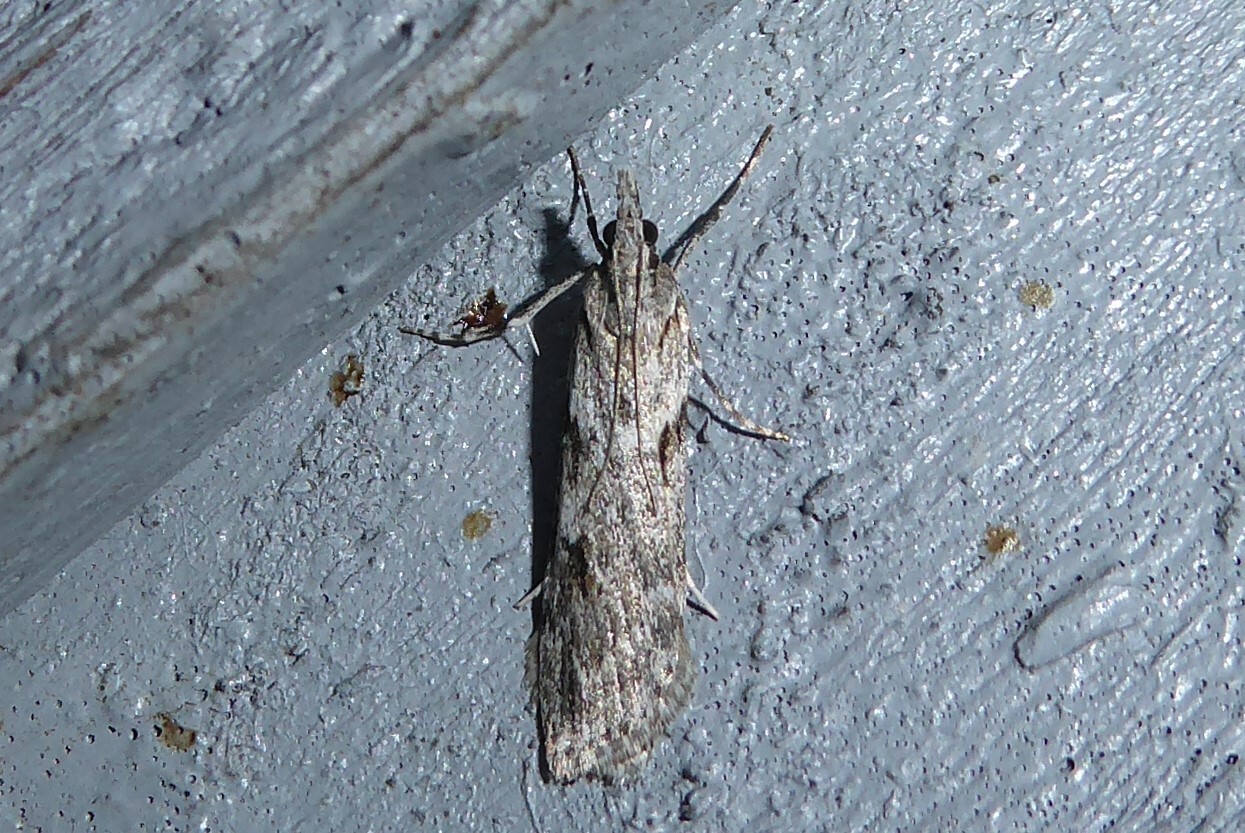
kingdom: Animalia
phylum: Arthropoda
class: Insecta
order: Lepidoptera
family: Crambidae
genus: Scoparia
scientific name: Scoparia halopis
